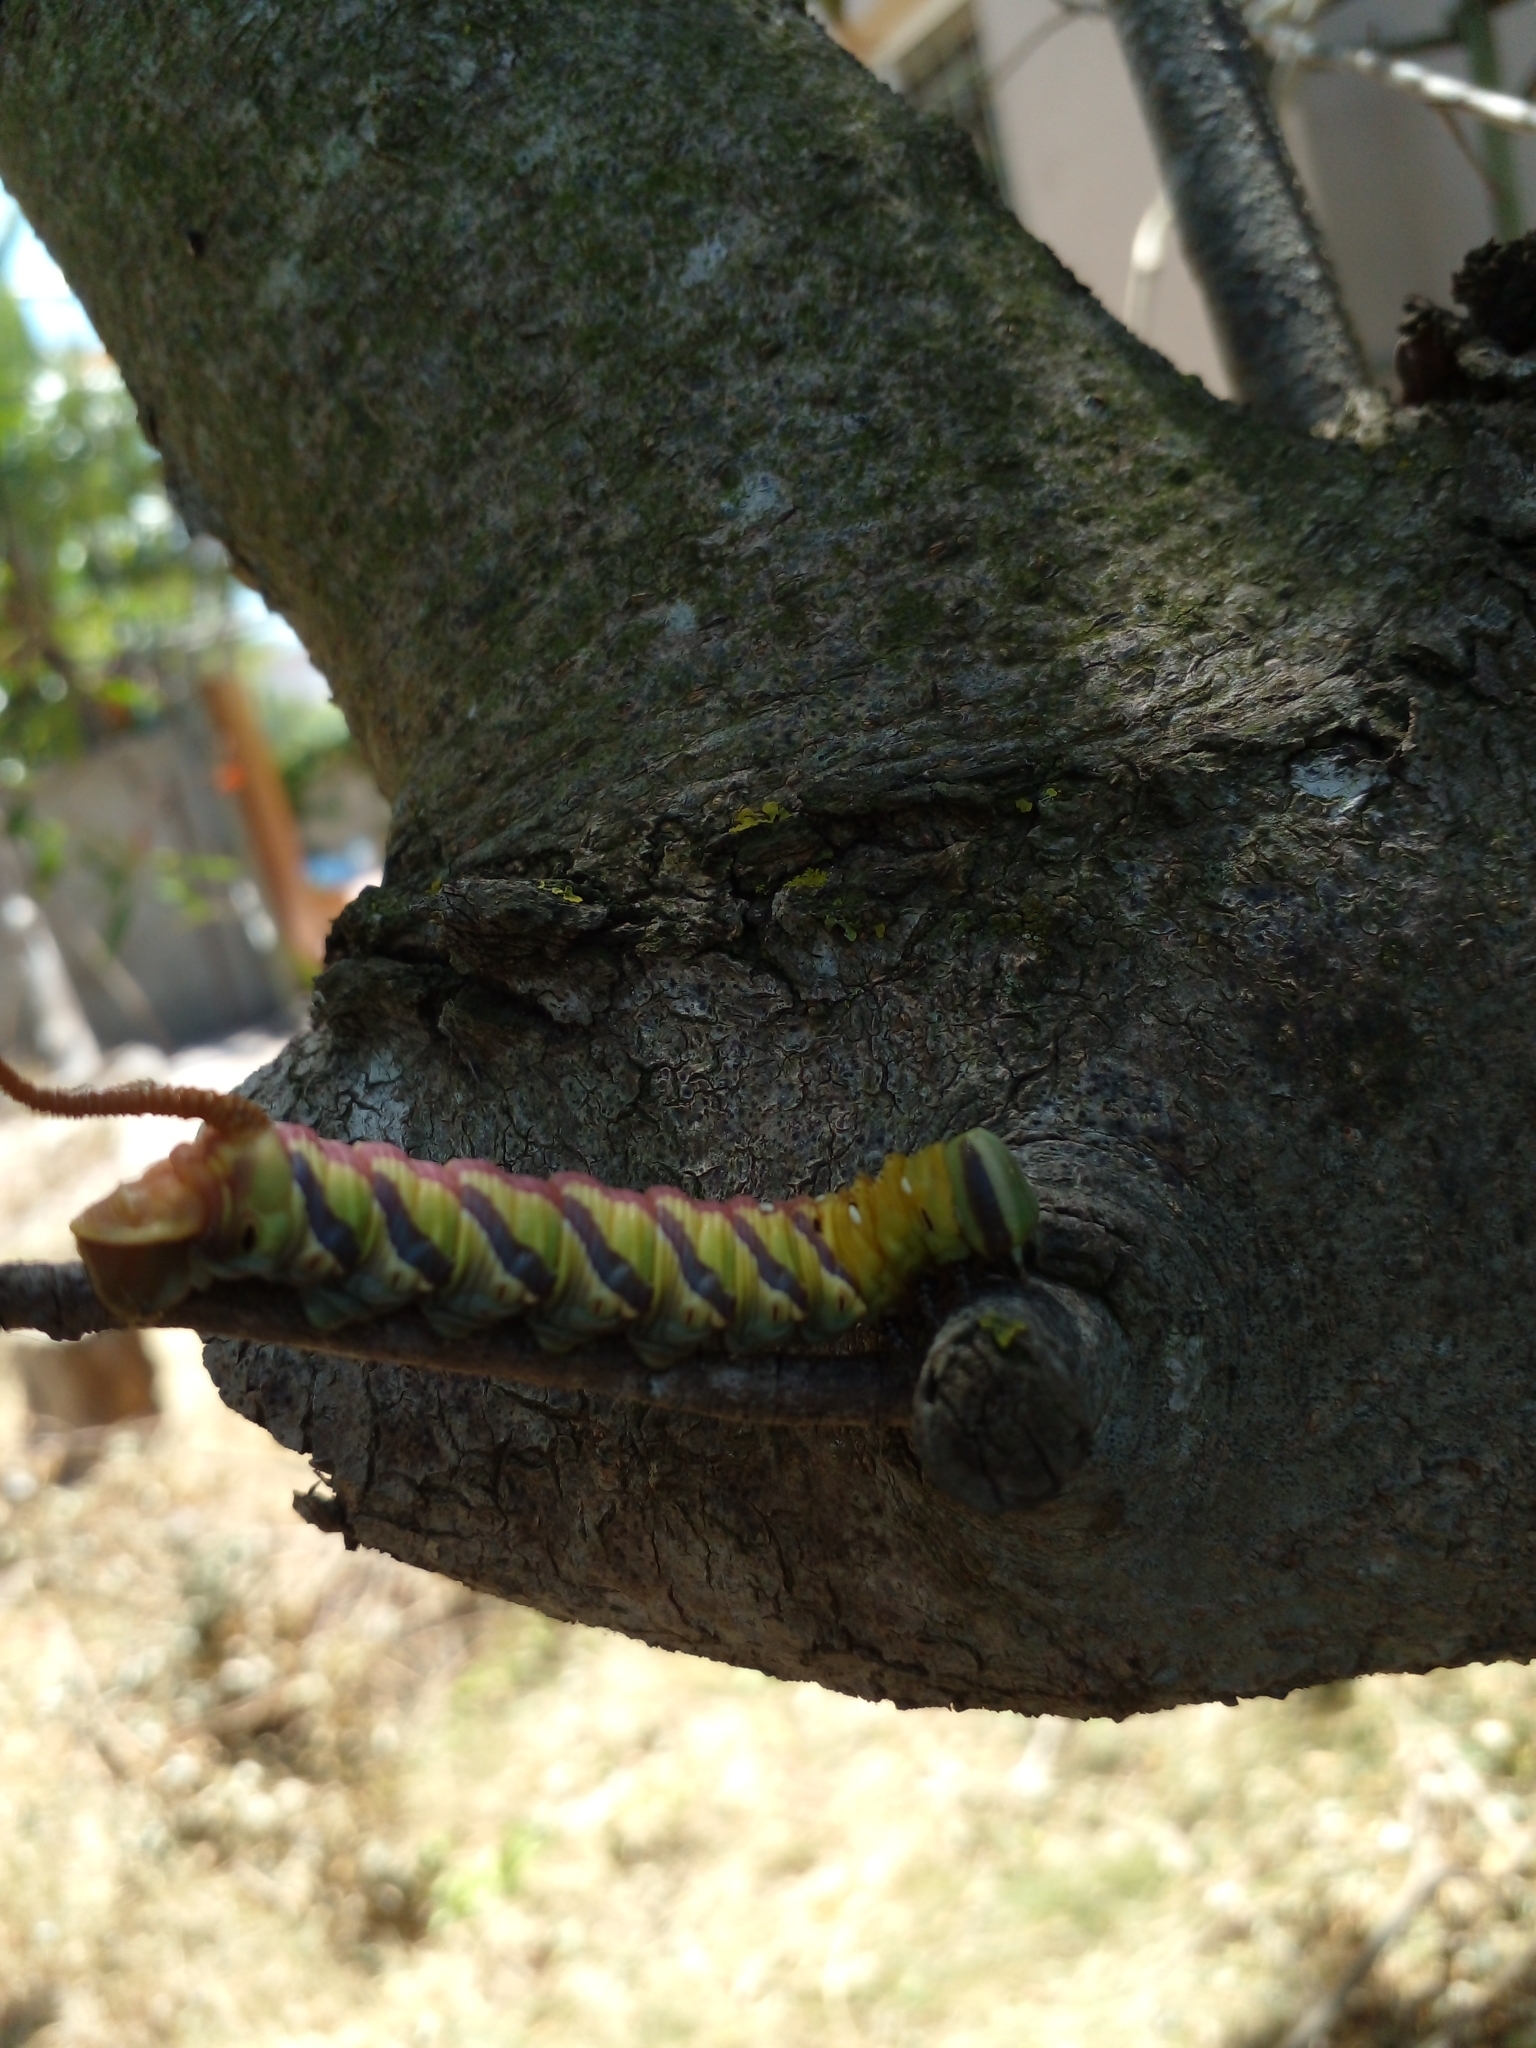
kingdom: Animalia
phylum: Arthropoda
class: Insecta
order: Lepidoptera
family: Sphingidae
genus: Coelonia
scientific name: Coelonia fulvinotata
